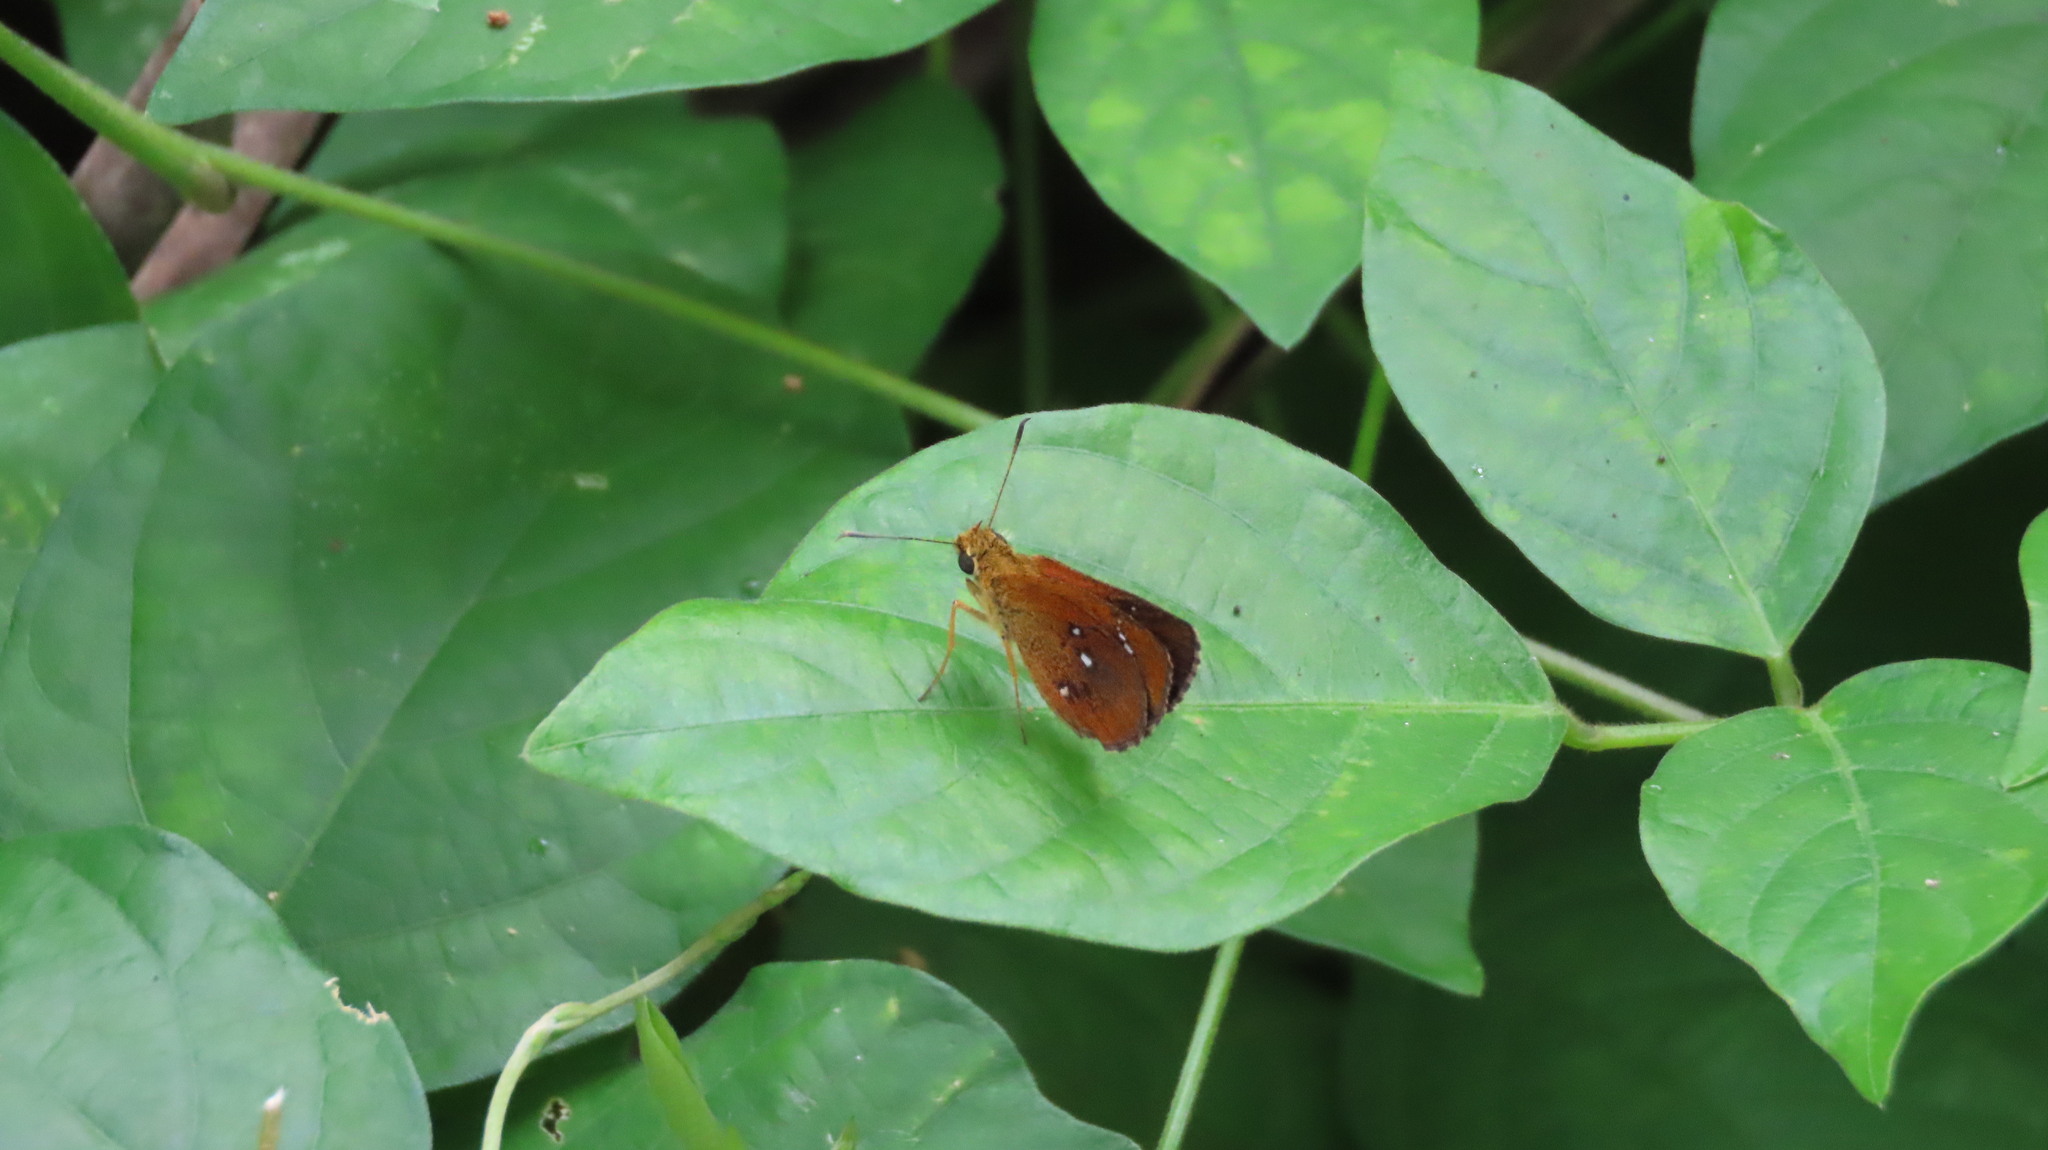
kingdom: Animalia
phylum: Arthropoda
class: Insecta
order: Lepidoptera
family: Hesperiidae
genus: Iambrix
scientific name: Iambrix salsala
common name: Chestnut bob
